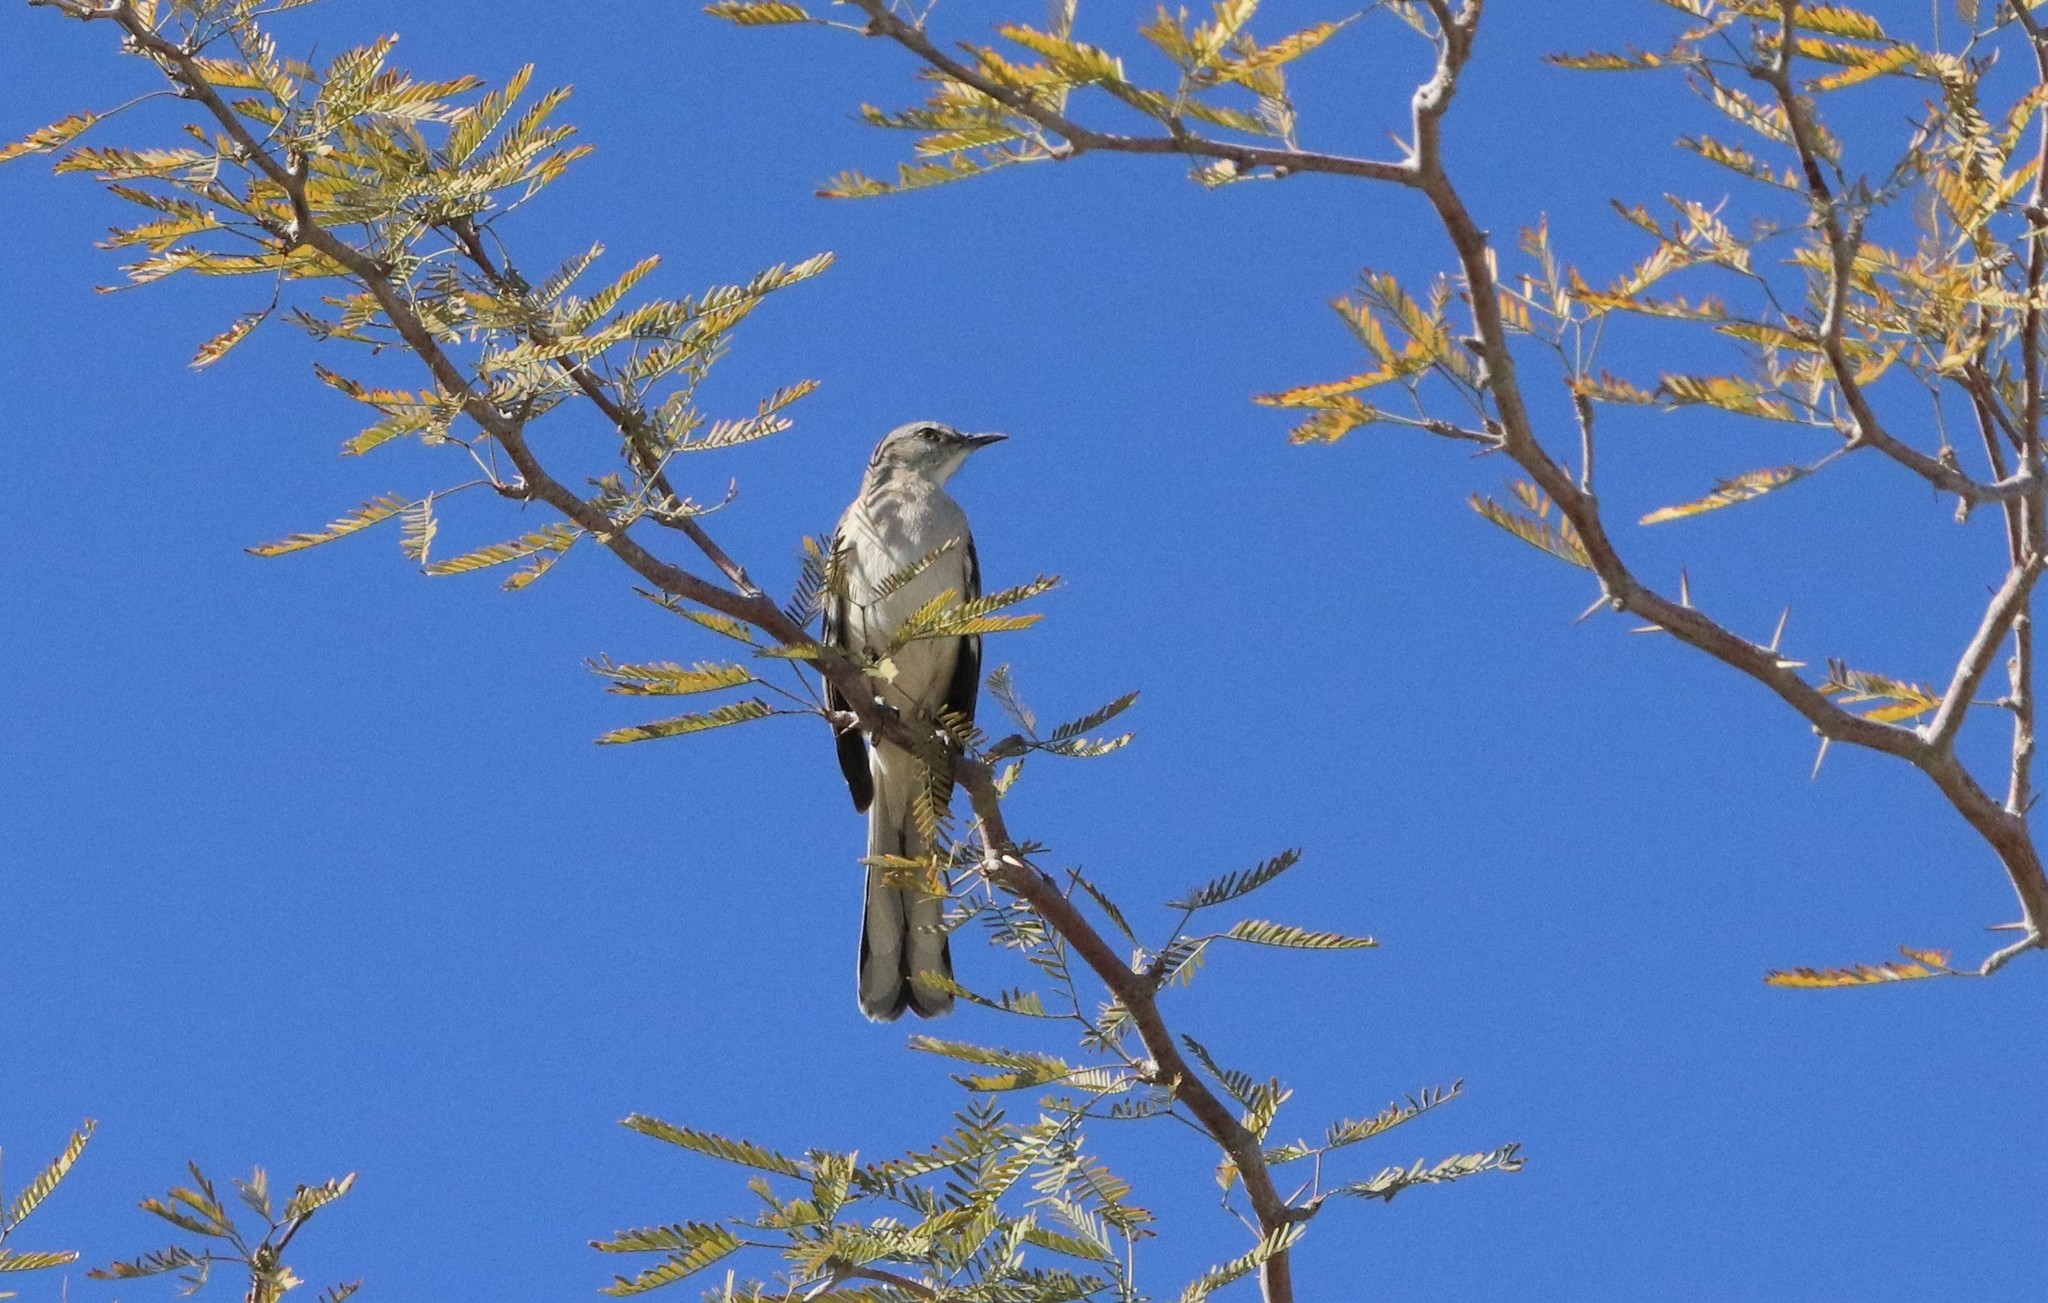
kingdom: Animalia
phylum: Chordata
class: Aves
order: Passeriformes
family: Mimidae
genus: Mimus
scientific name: Mimus polyglottos
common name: Northern mockingbird
